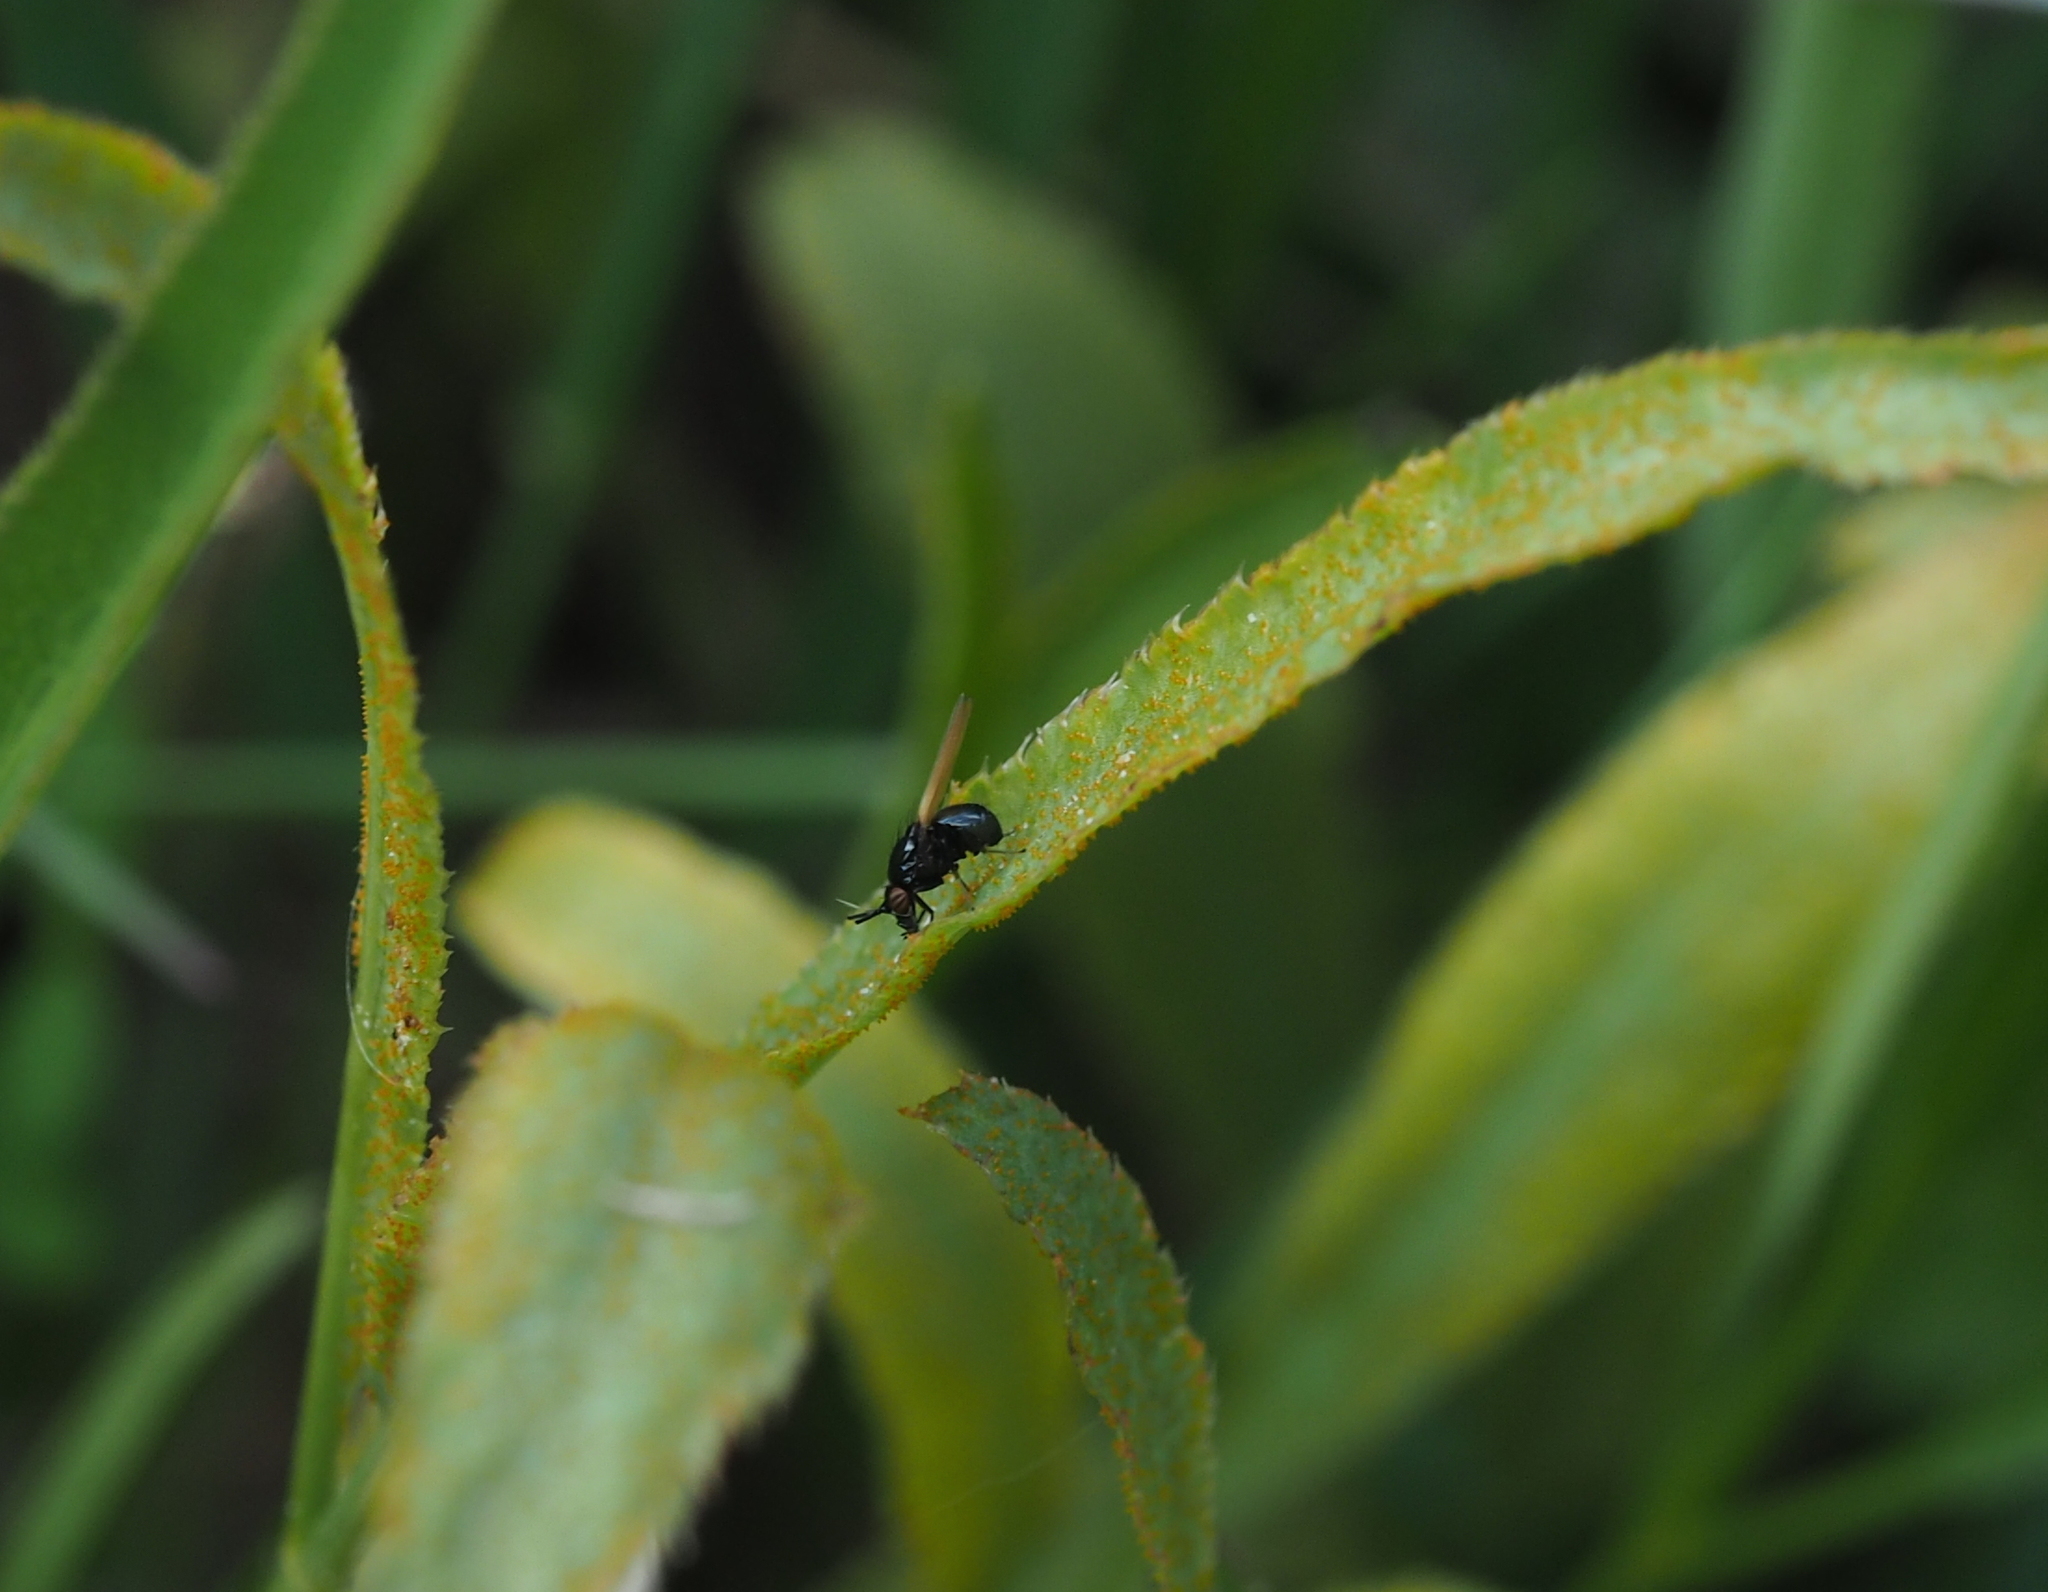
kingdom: Fungi
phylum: Basidiomycota
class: Pucciniomycetes
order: Pucciniales
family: Pucciniaceae
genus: Puccinia
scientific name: Puccinia sii-falcariae
